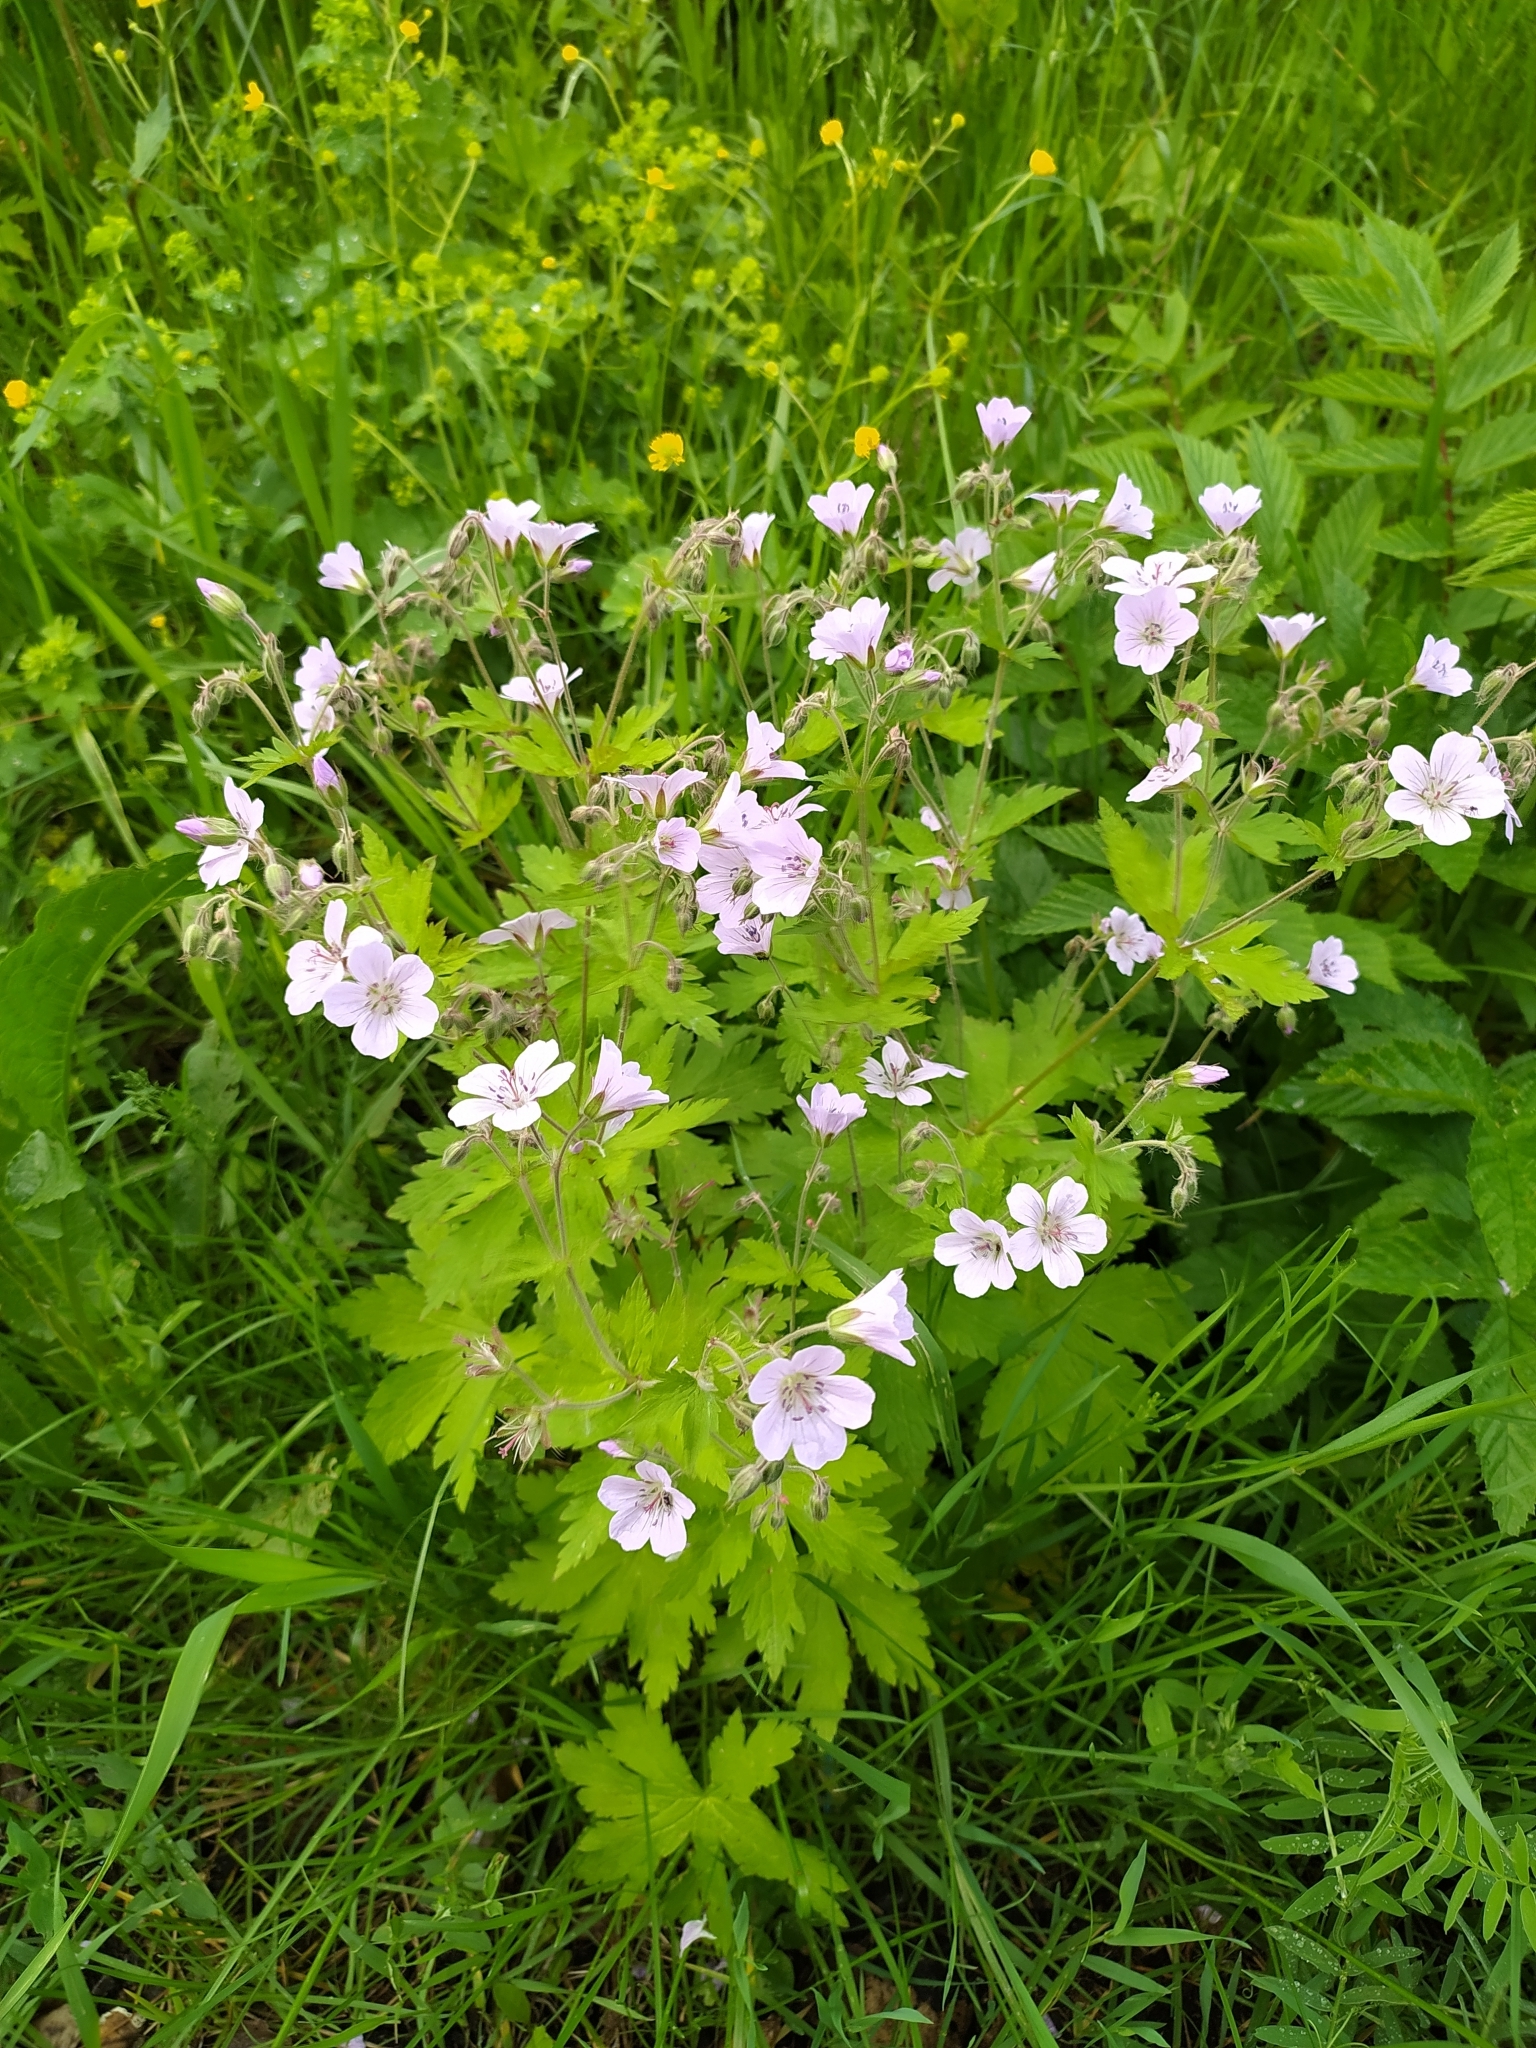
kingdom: Plantae
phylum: Tracheophyta
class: Magnoliopsida
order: Geraniales
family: Geraniaceae
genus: Geranium
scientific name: Geranium sylvaticum
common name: Wood crane's-bill
